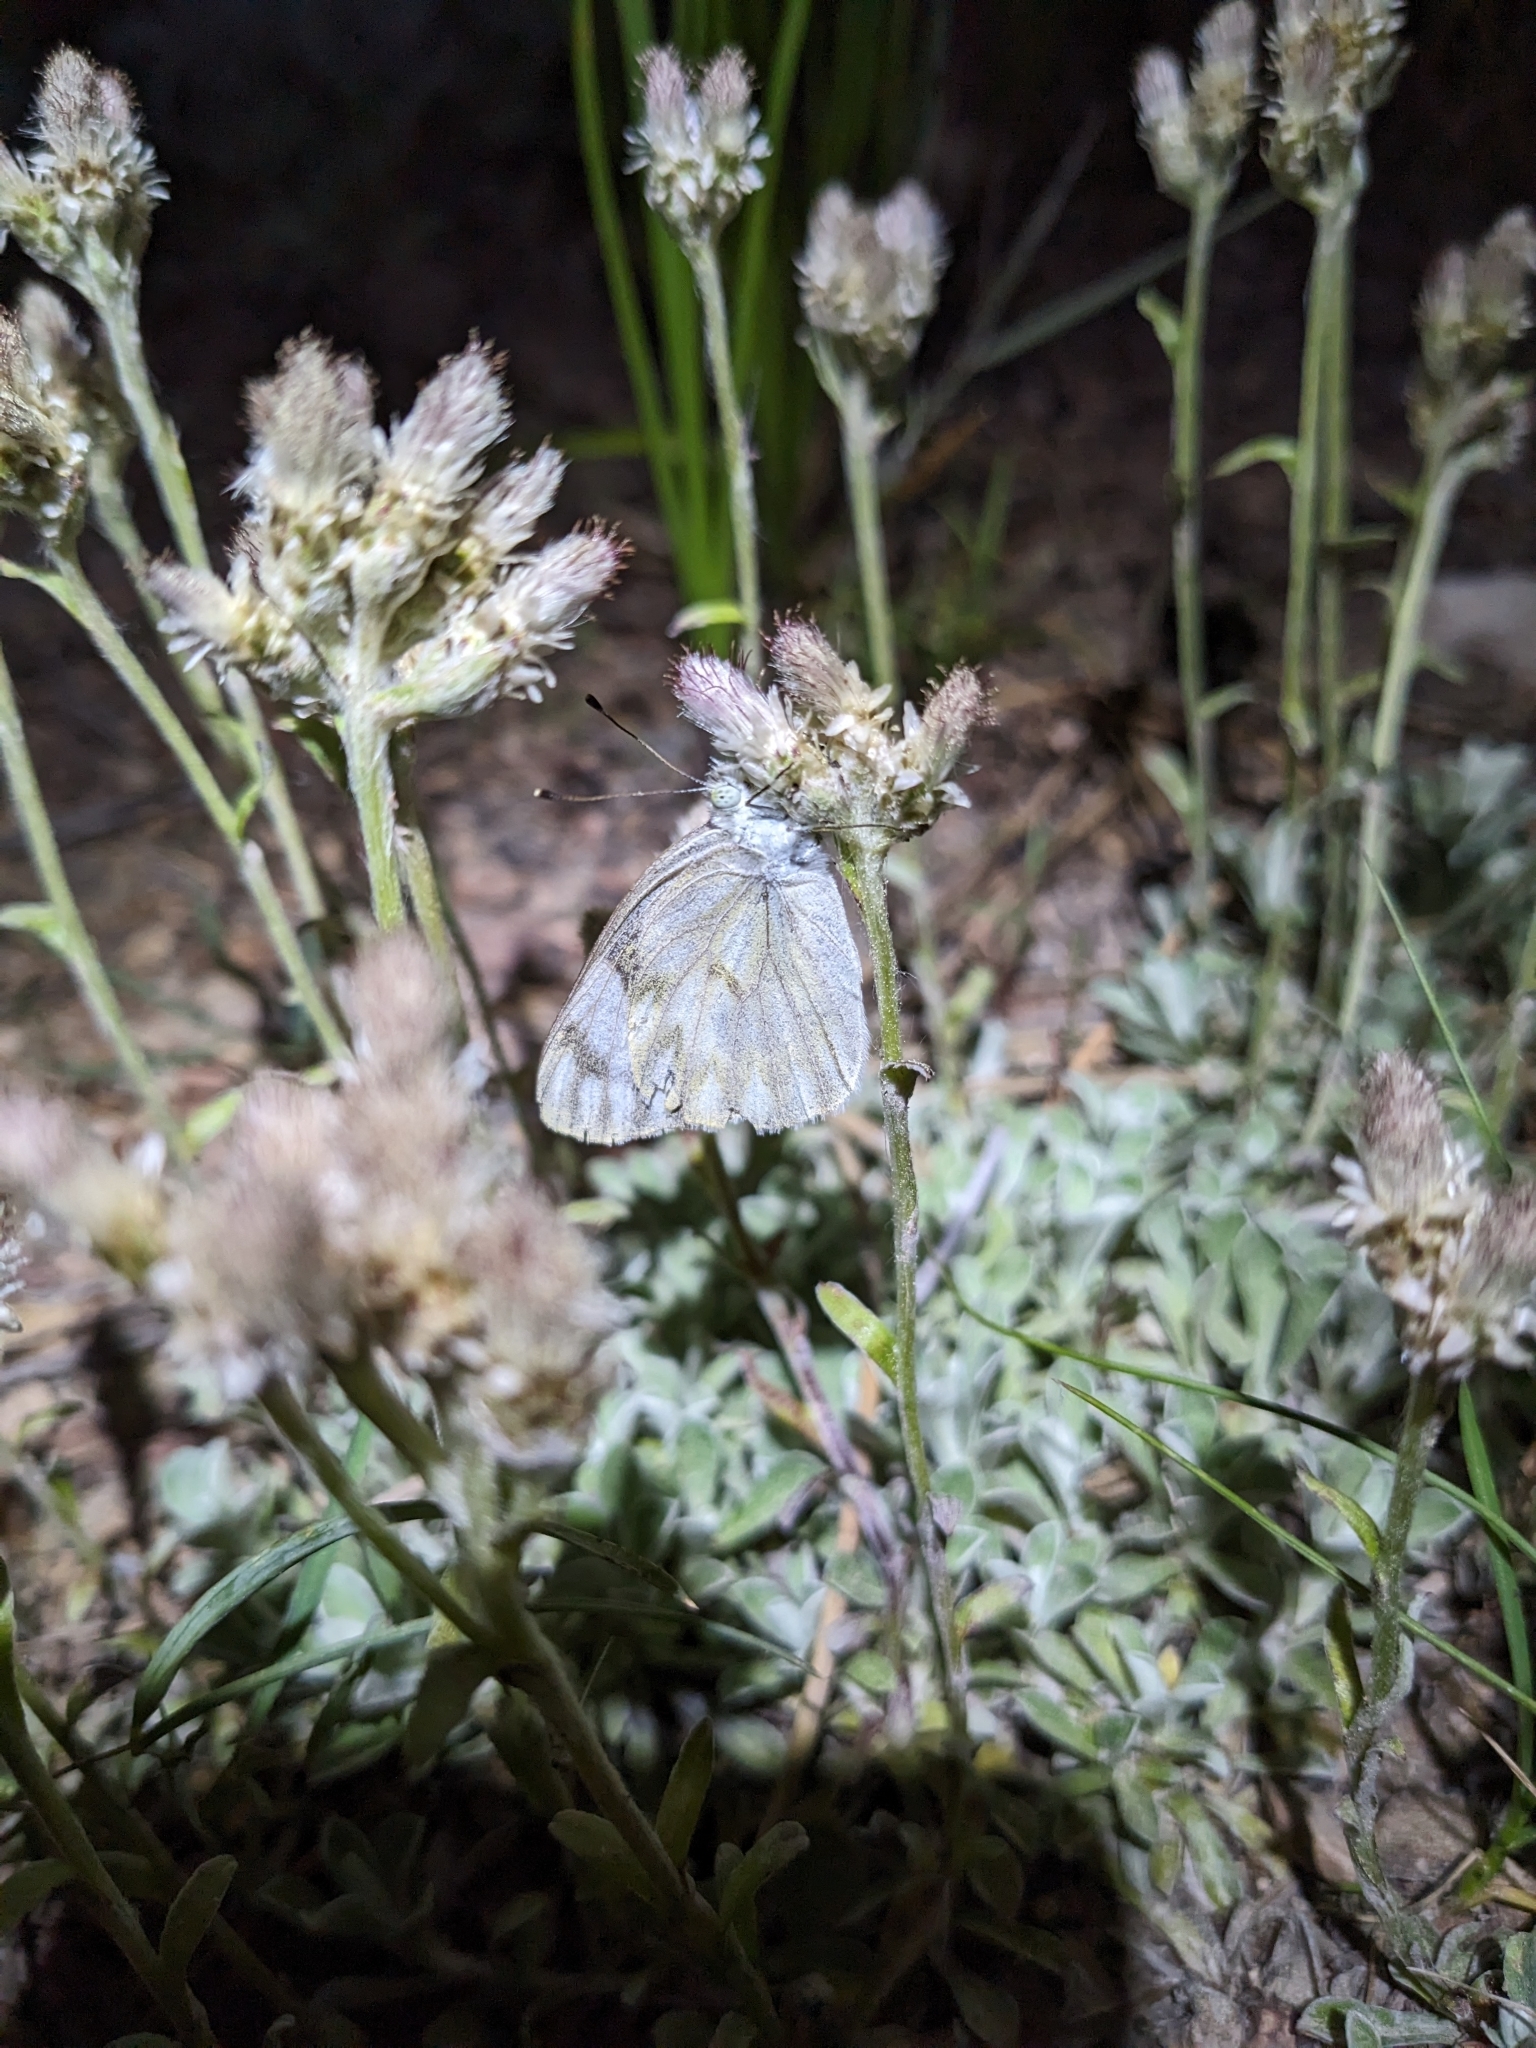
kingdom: Animalia
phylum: Arthropoda
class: Insecta
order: Lepidoptera
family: Pieridae
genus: Pontia
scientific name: Pontia protodice
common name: Checkered white
